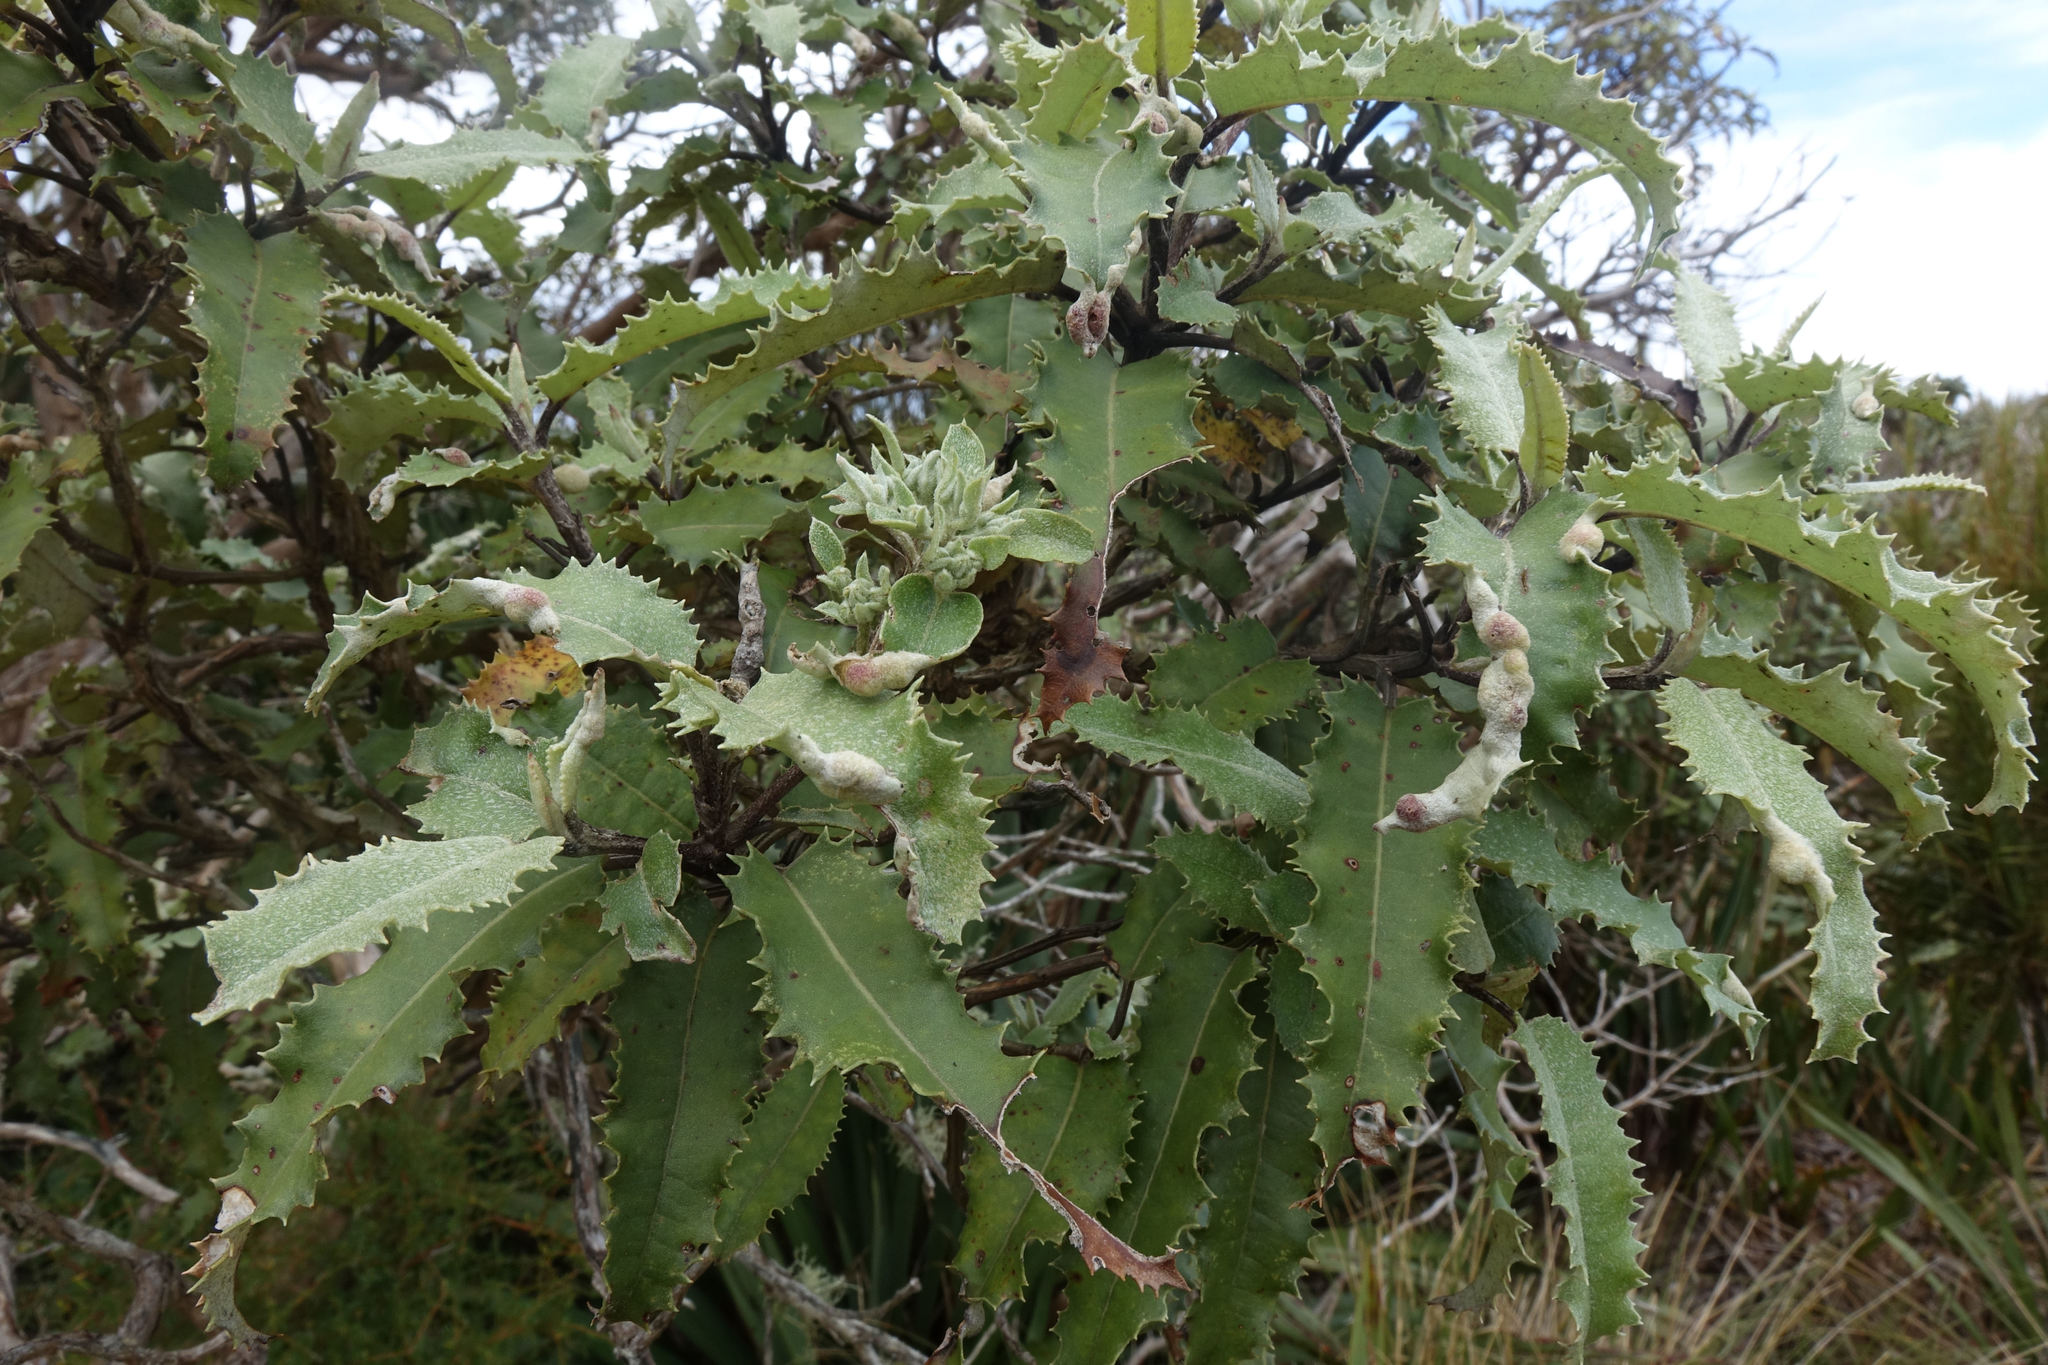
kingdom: Plantae
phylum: Tracheophyta
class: Magnoliopsida
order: Asterales
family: Asteraceae
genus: Olearia
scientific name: Olearia ilicifolia
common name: Maori-holly
